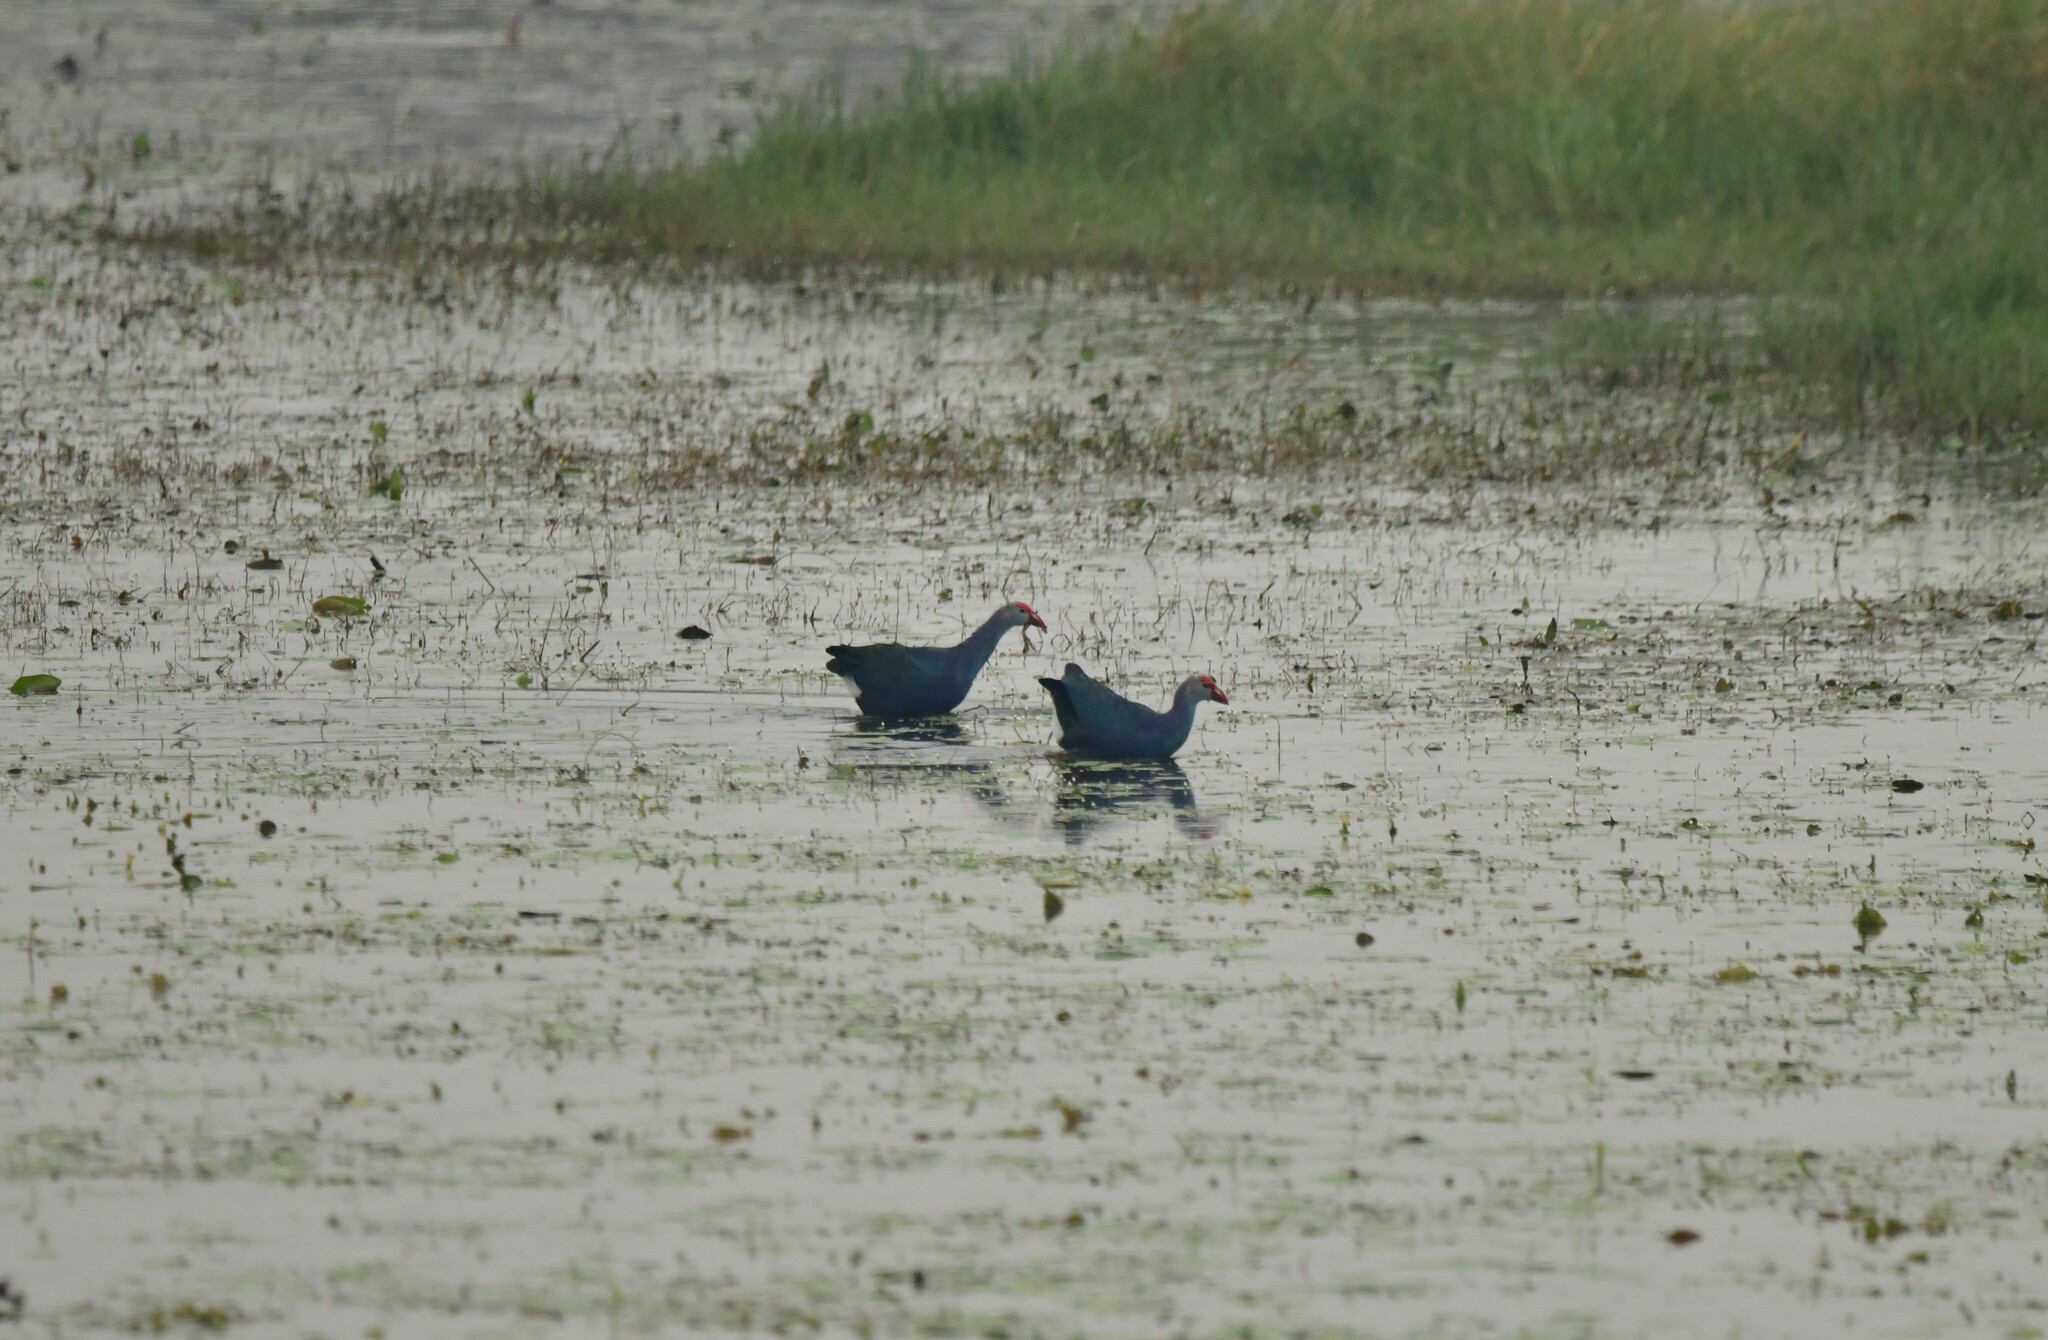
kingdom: Animalia
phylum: Chordata
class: Aves
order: Gruiformes
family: Rallidae
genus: Porphyrio
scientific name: Porphyrio porphyrio
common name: Purple swamphen
